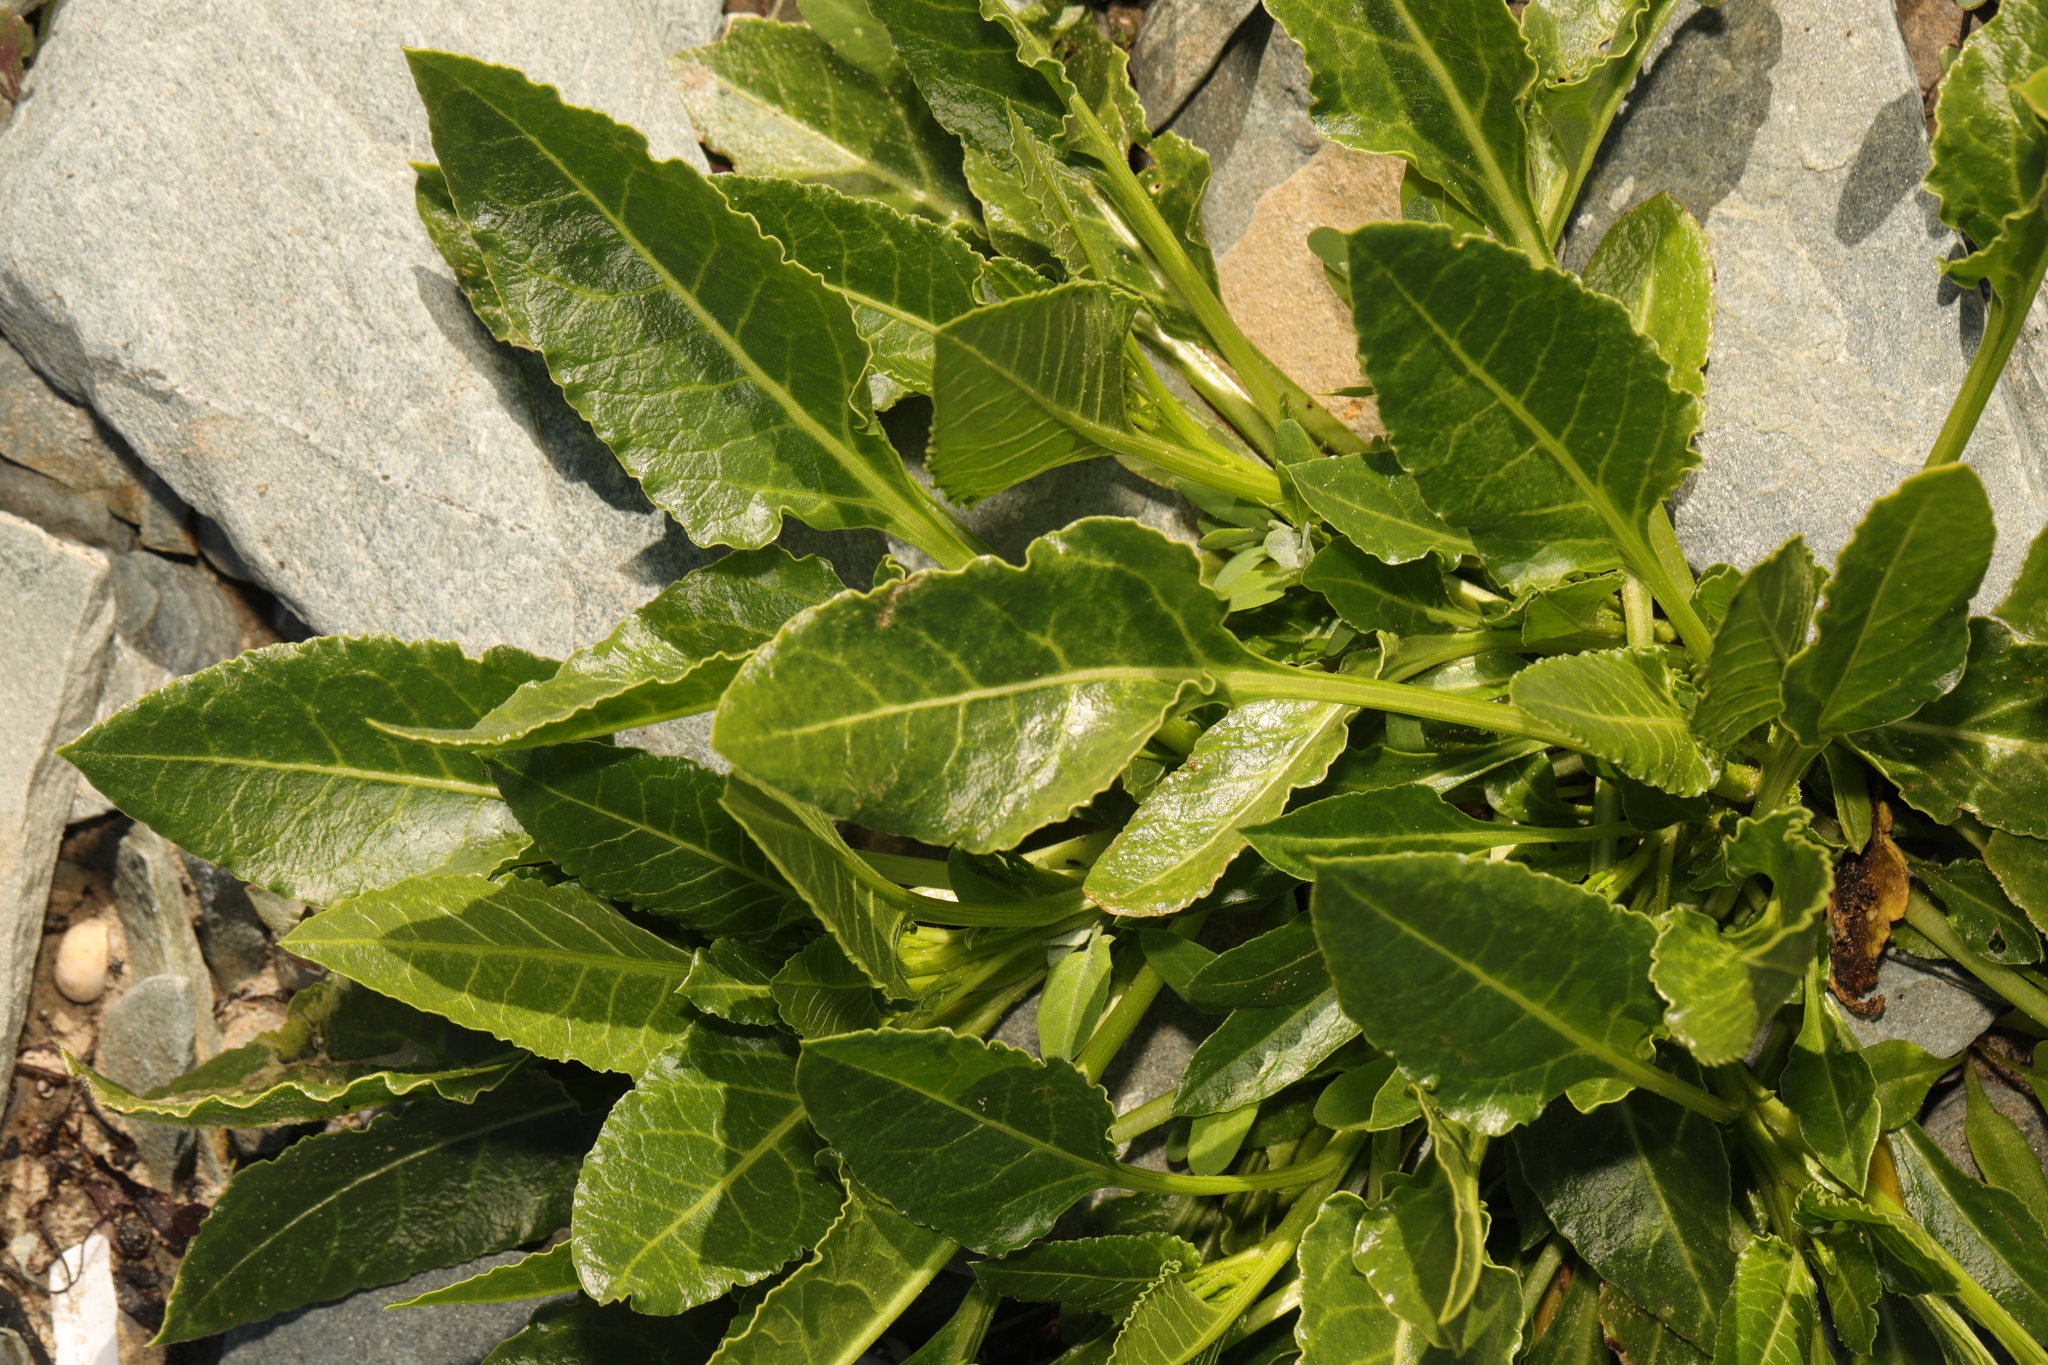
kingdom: Plantae
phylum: Tracheophyta
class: Magnoliopsida
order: Caryophyllales
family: Amaranthaceae
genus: Beta
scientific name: Beta vulgaris
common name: Beet
